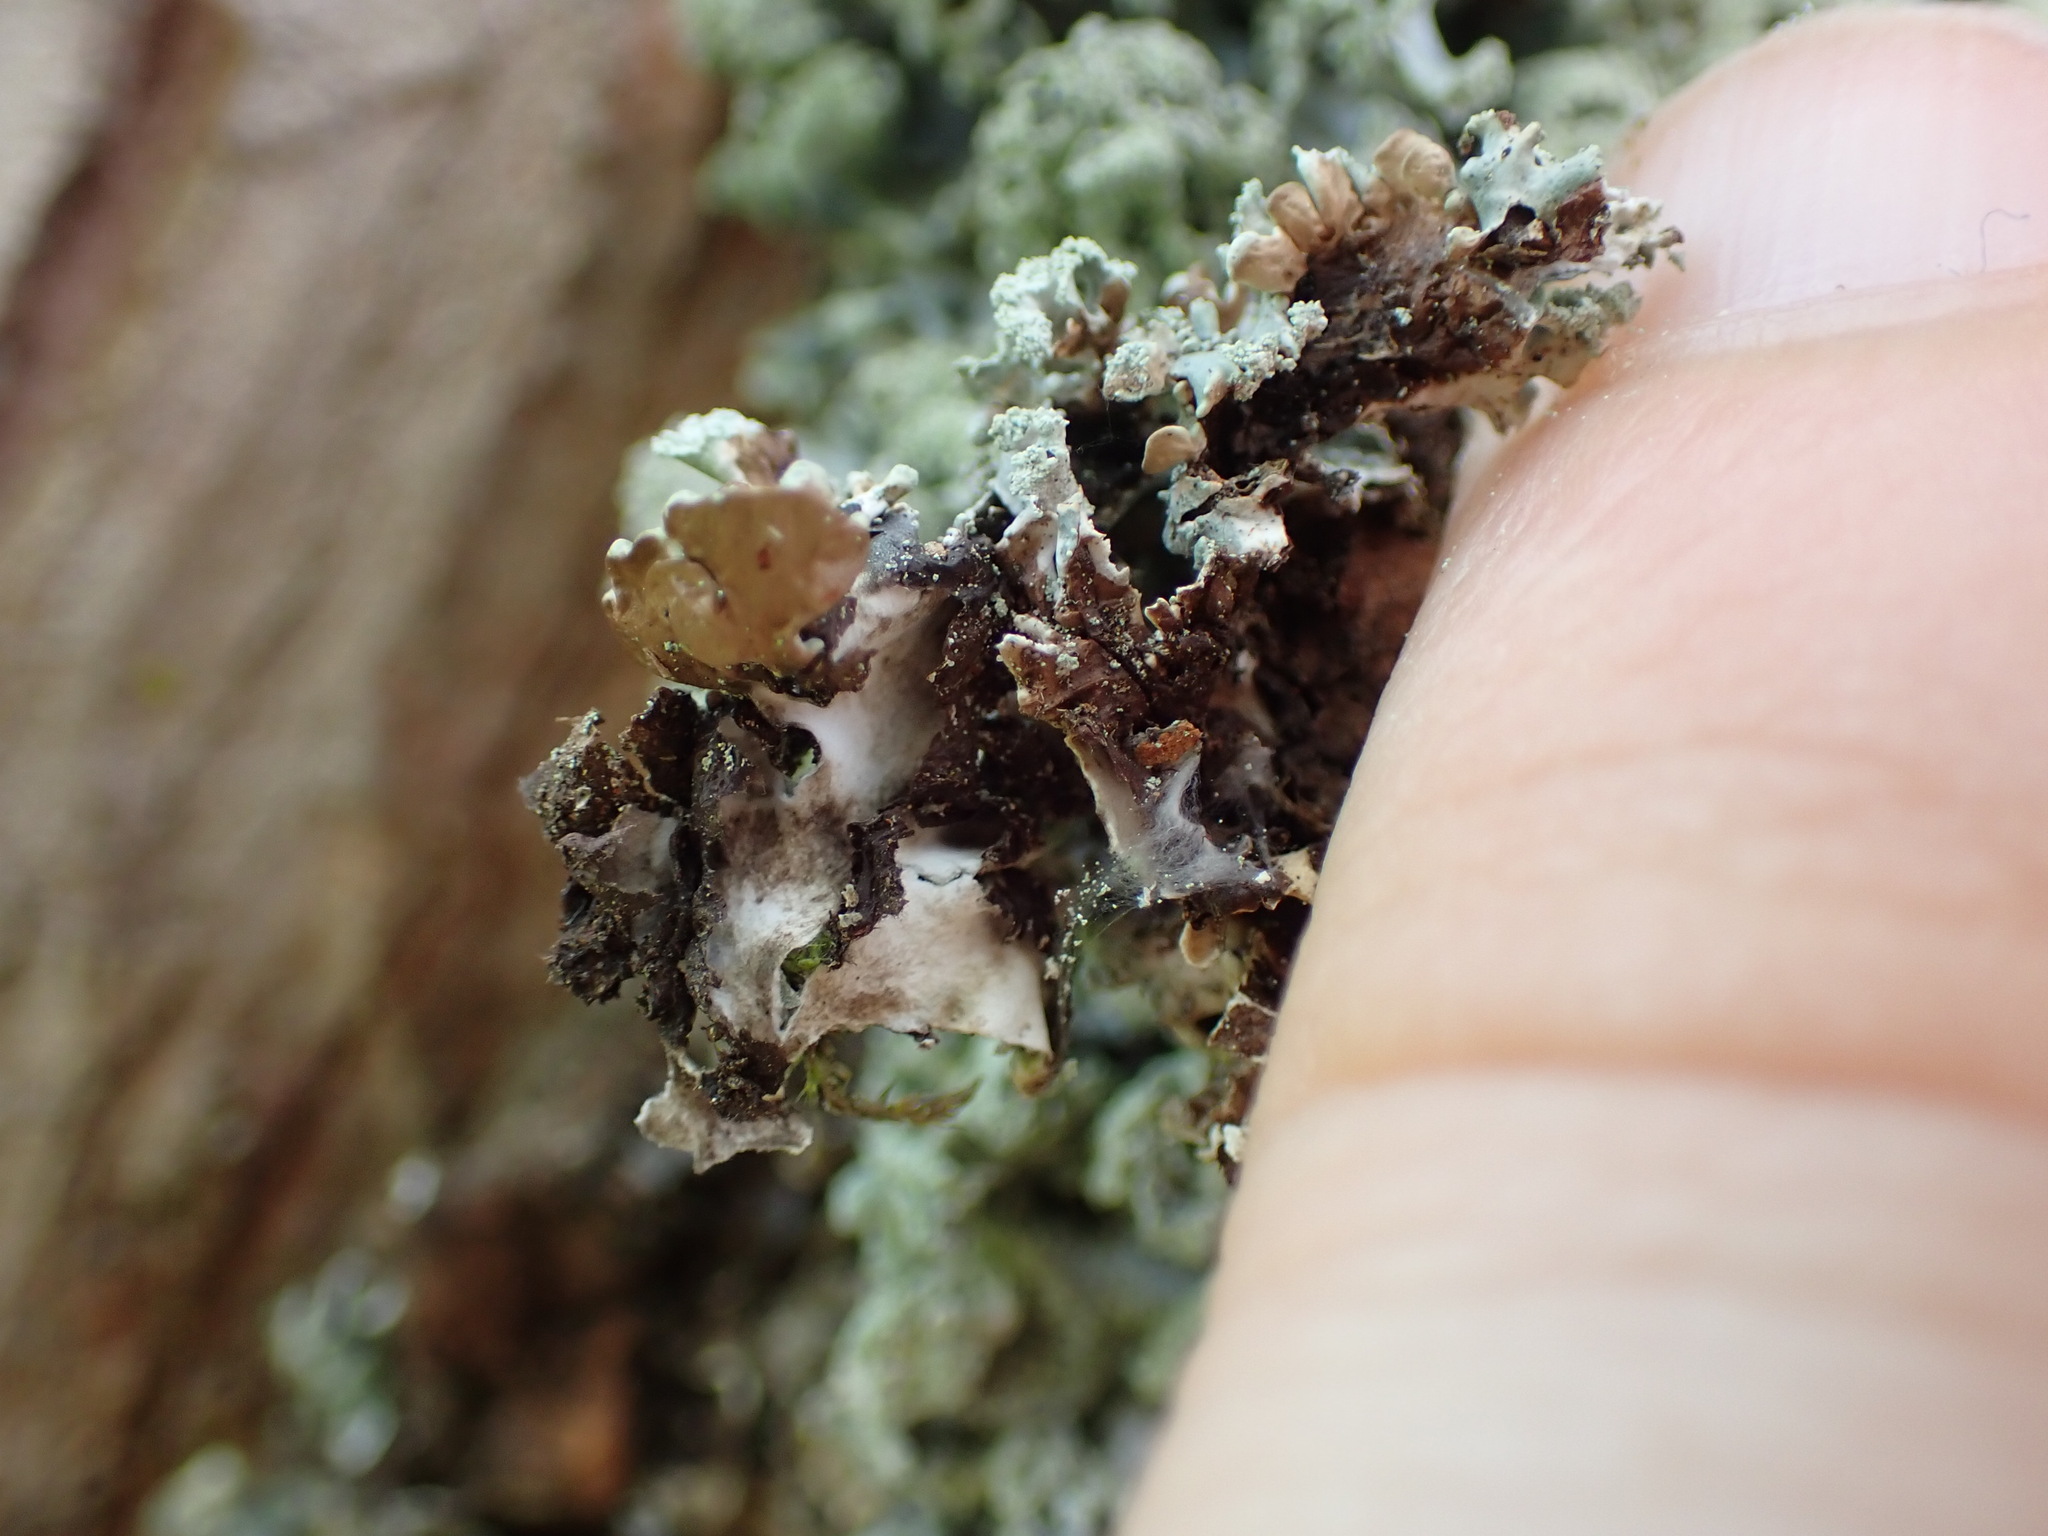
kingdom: Fungi
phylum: Ascomycota
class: Lecanoromycetes
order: Lecanorales
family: Parmeliaceae
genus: Hypogymnia
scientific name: Hypogymnia physodes
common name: Dark crottle
